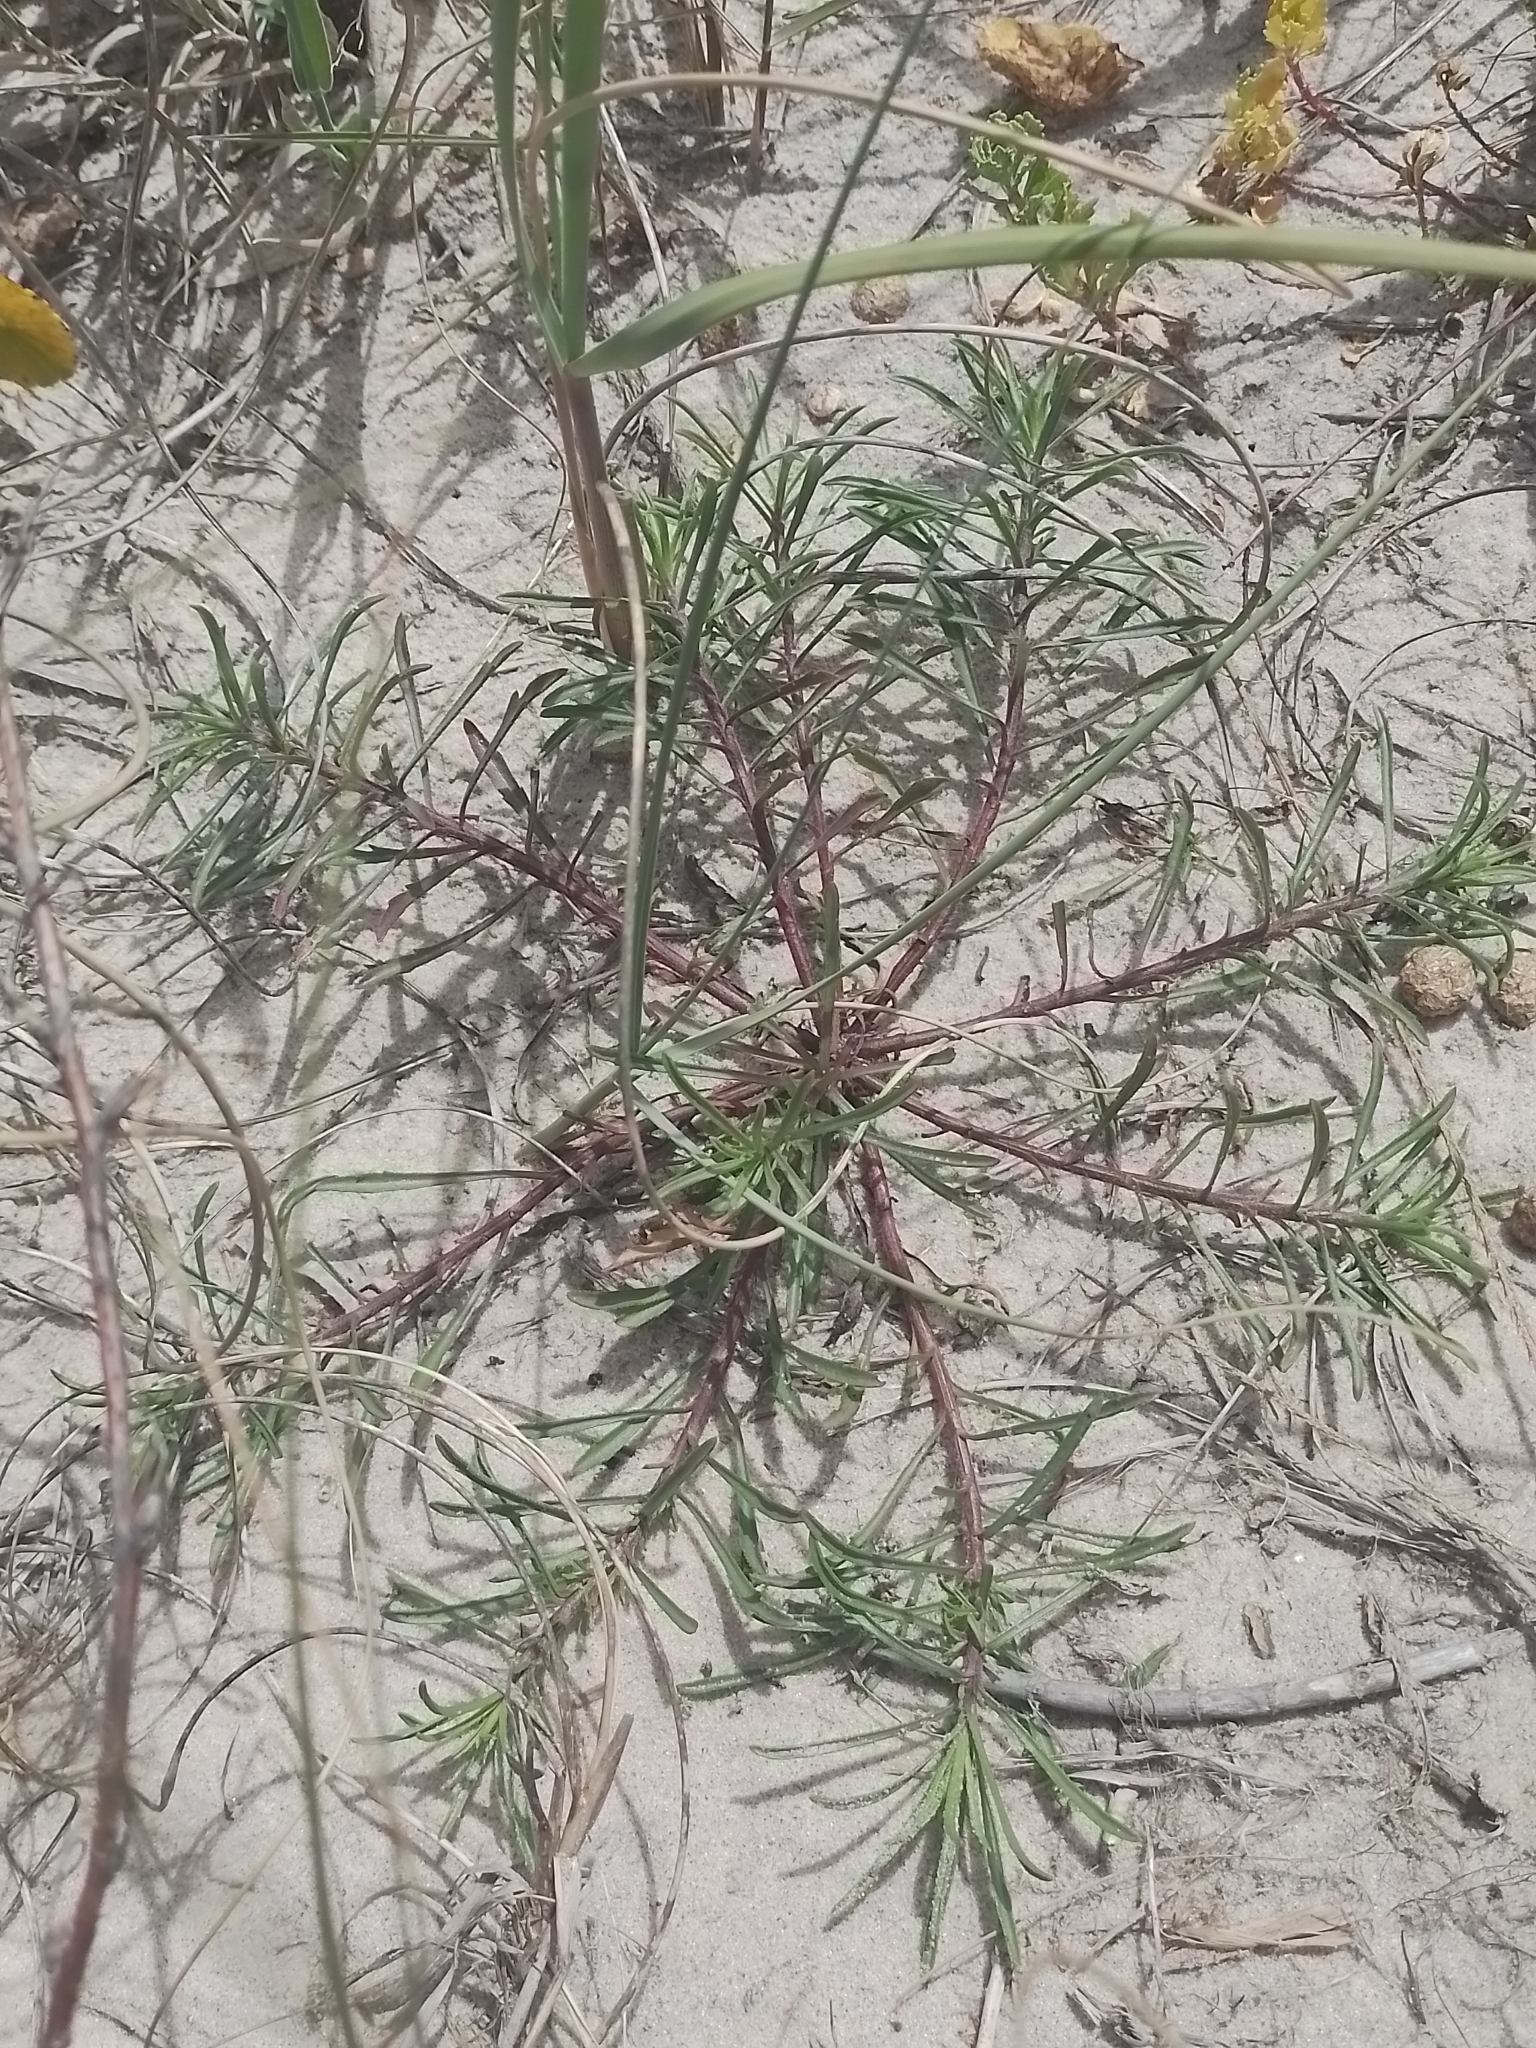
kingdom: Plantae
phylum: Tracheophyta
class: Magnoliopsida
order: Asterales
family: Asteraceae
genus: Erigeron
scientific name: Erigeron blakei
